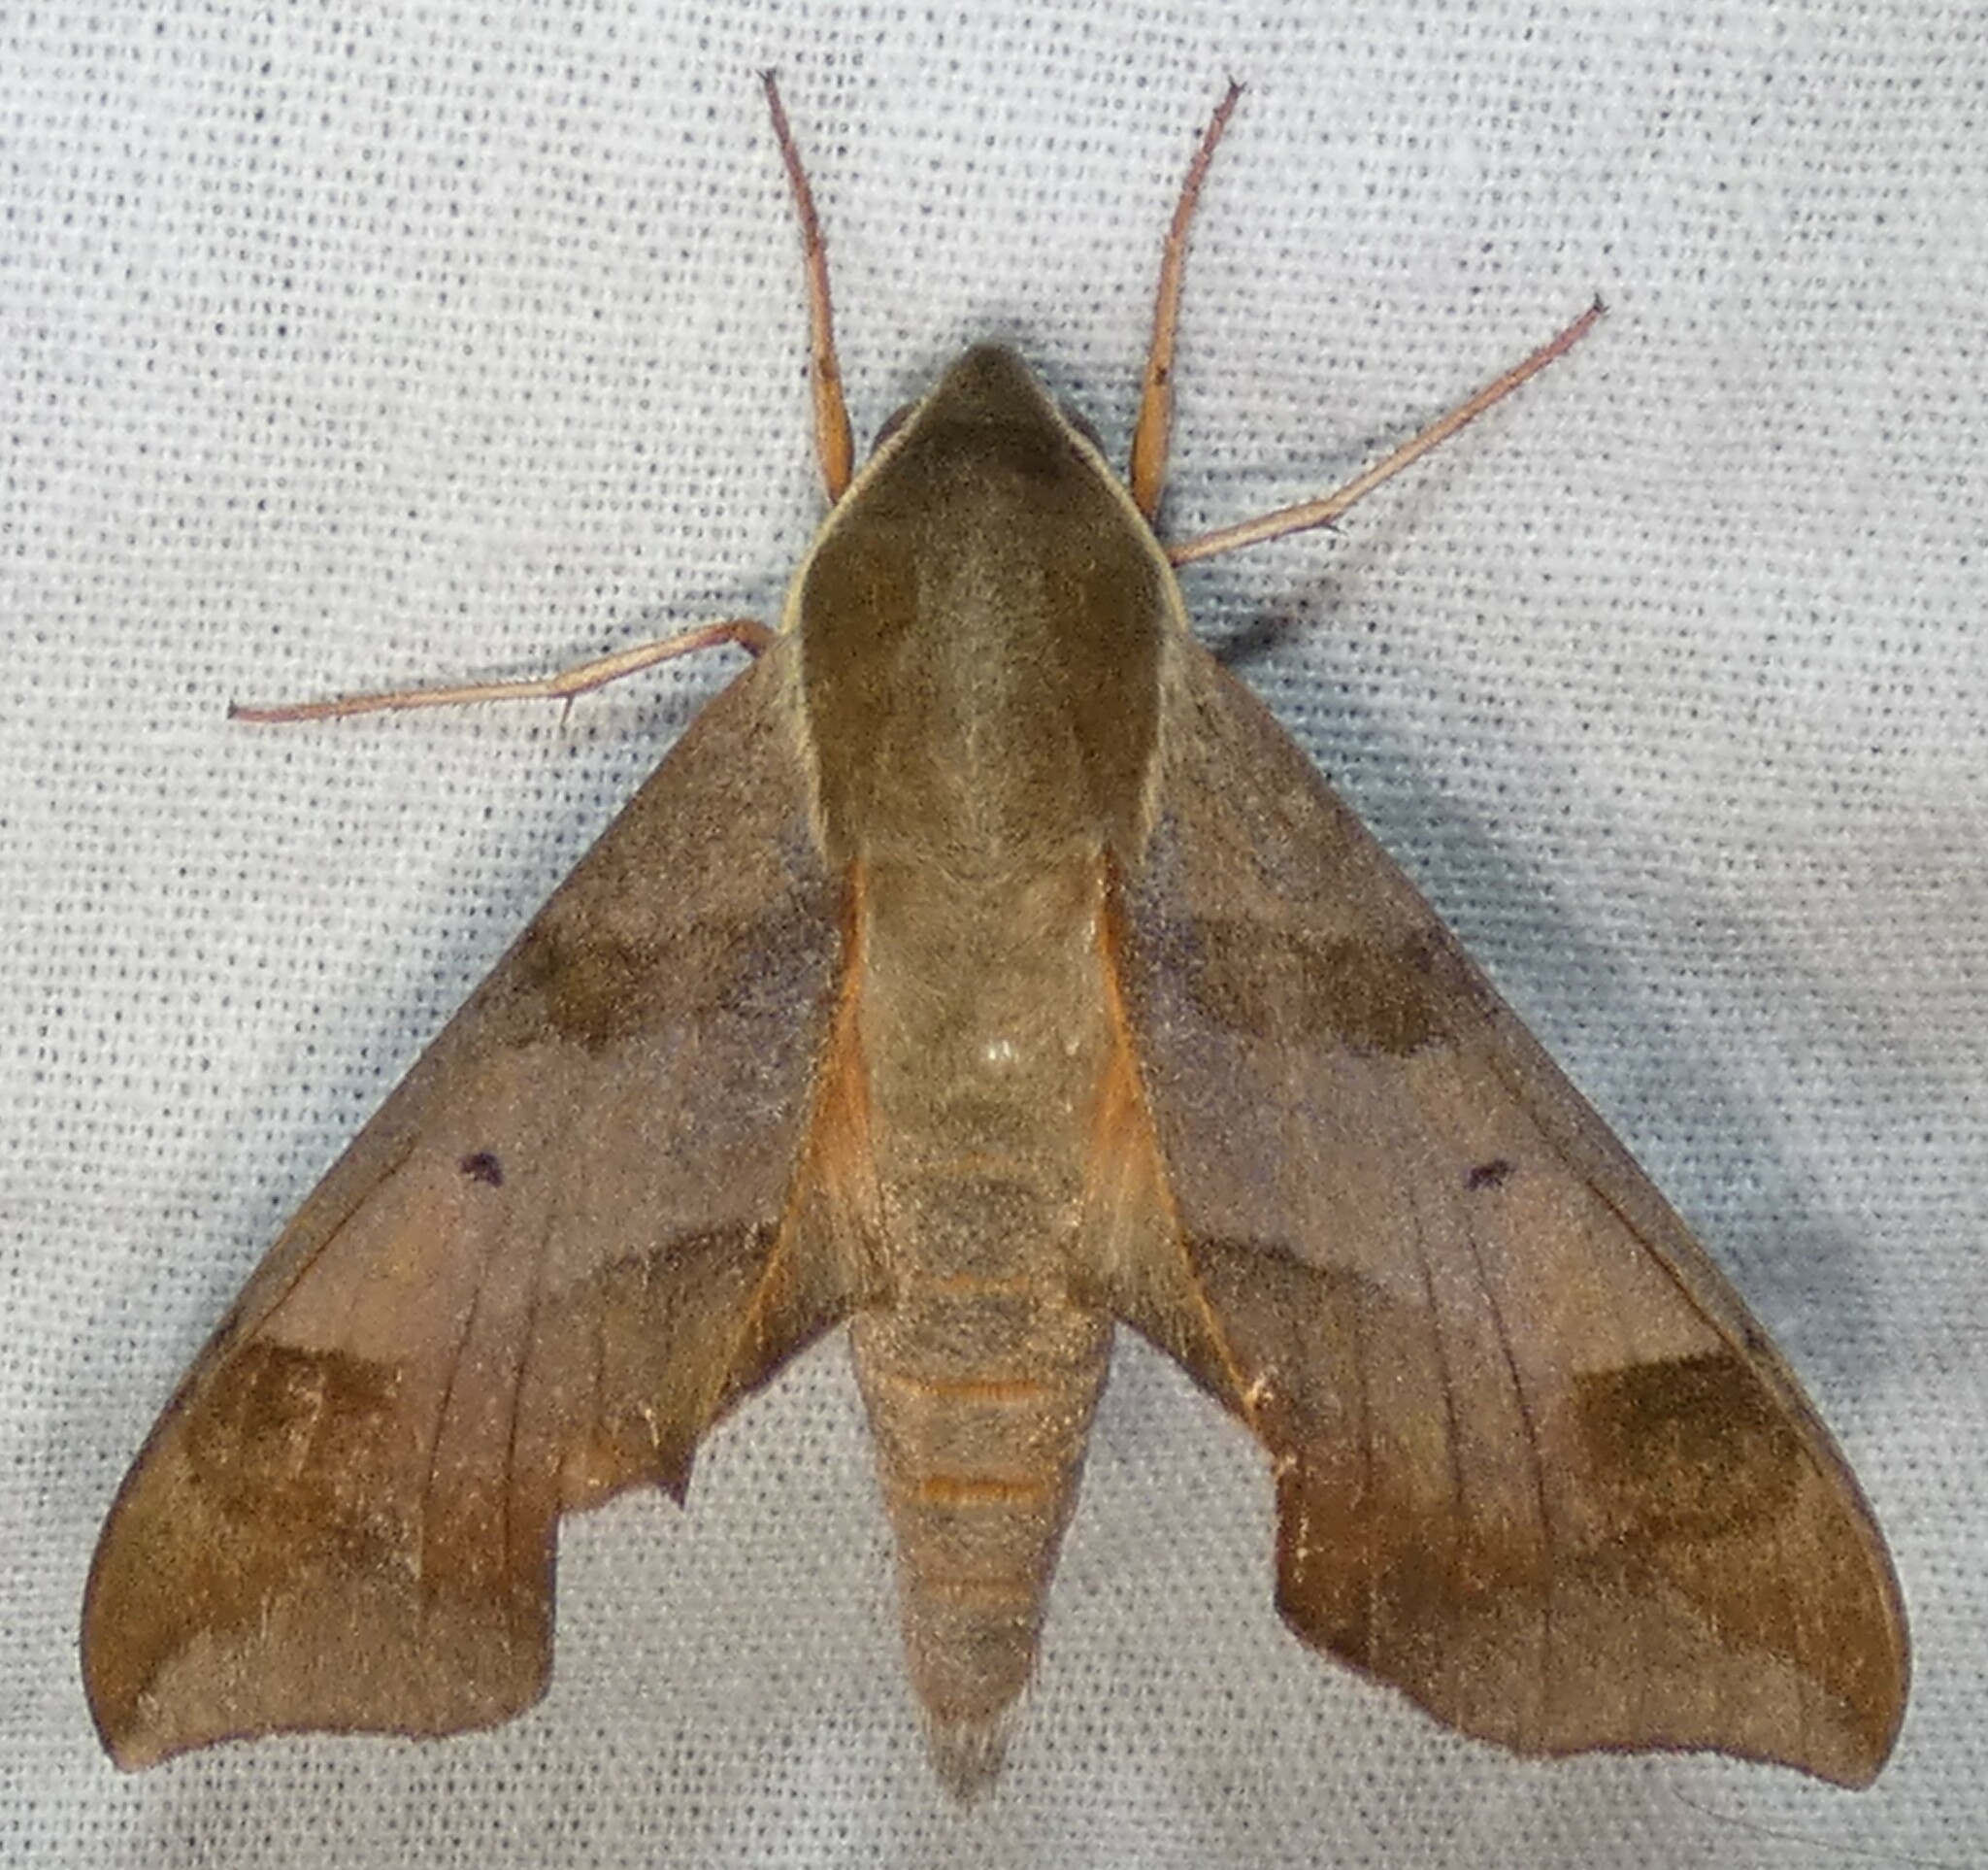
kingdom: Animalia
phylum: Arthropoda
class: Insecta
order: Lepidoptera
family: Sphingidae
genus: Darapsa
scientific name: Darapsa myron
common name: Hog sphinx
